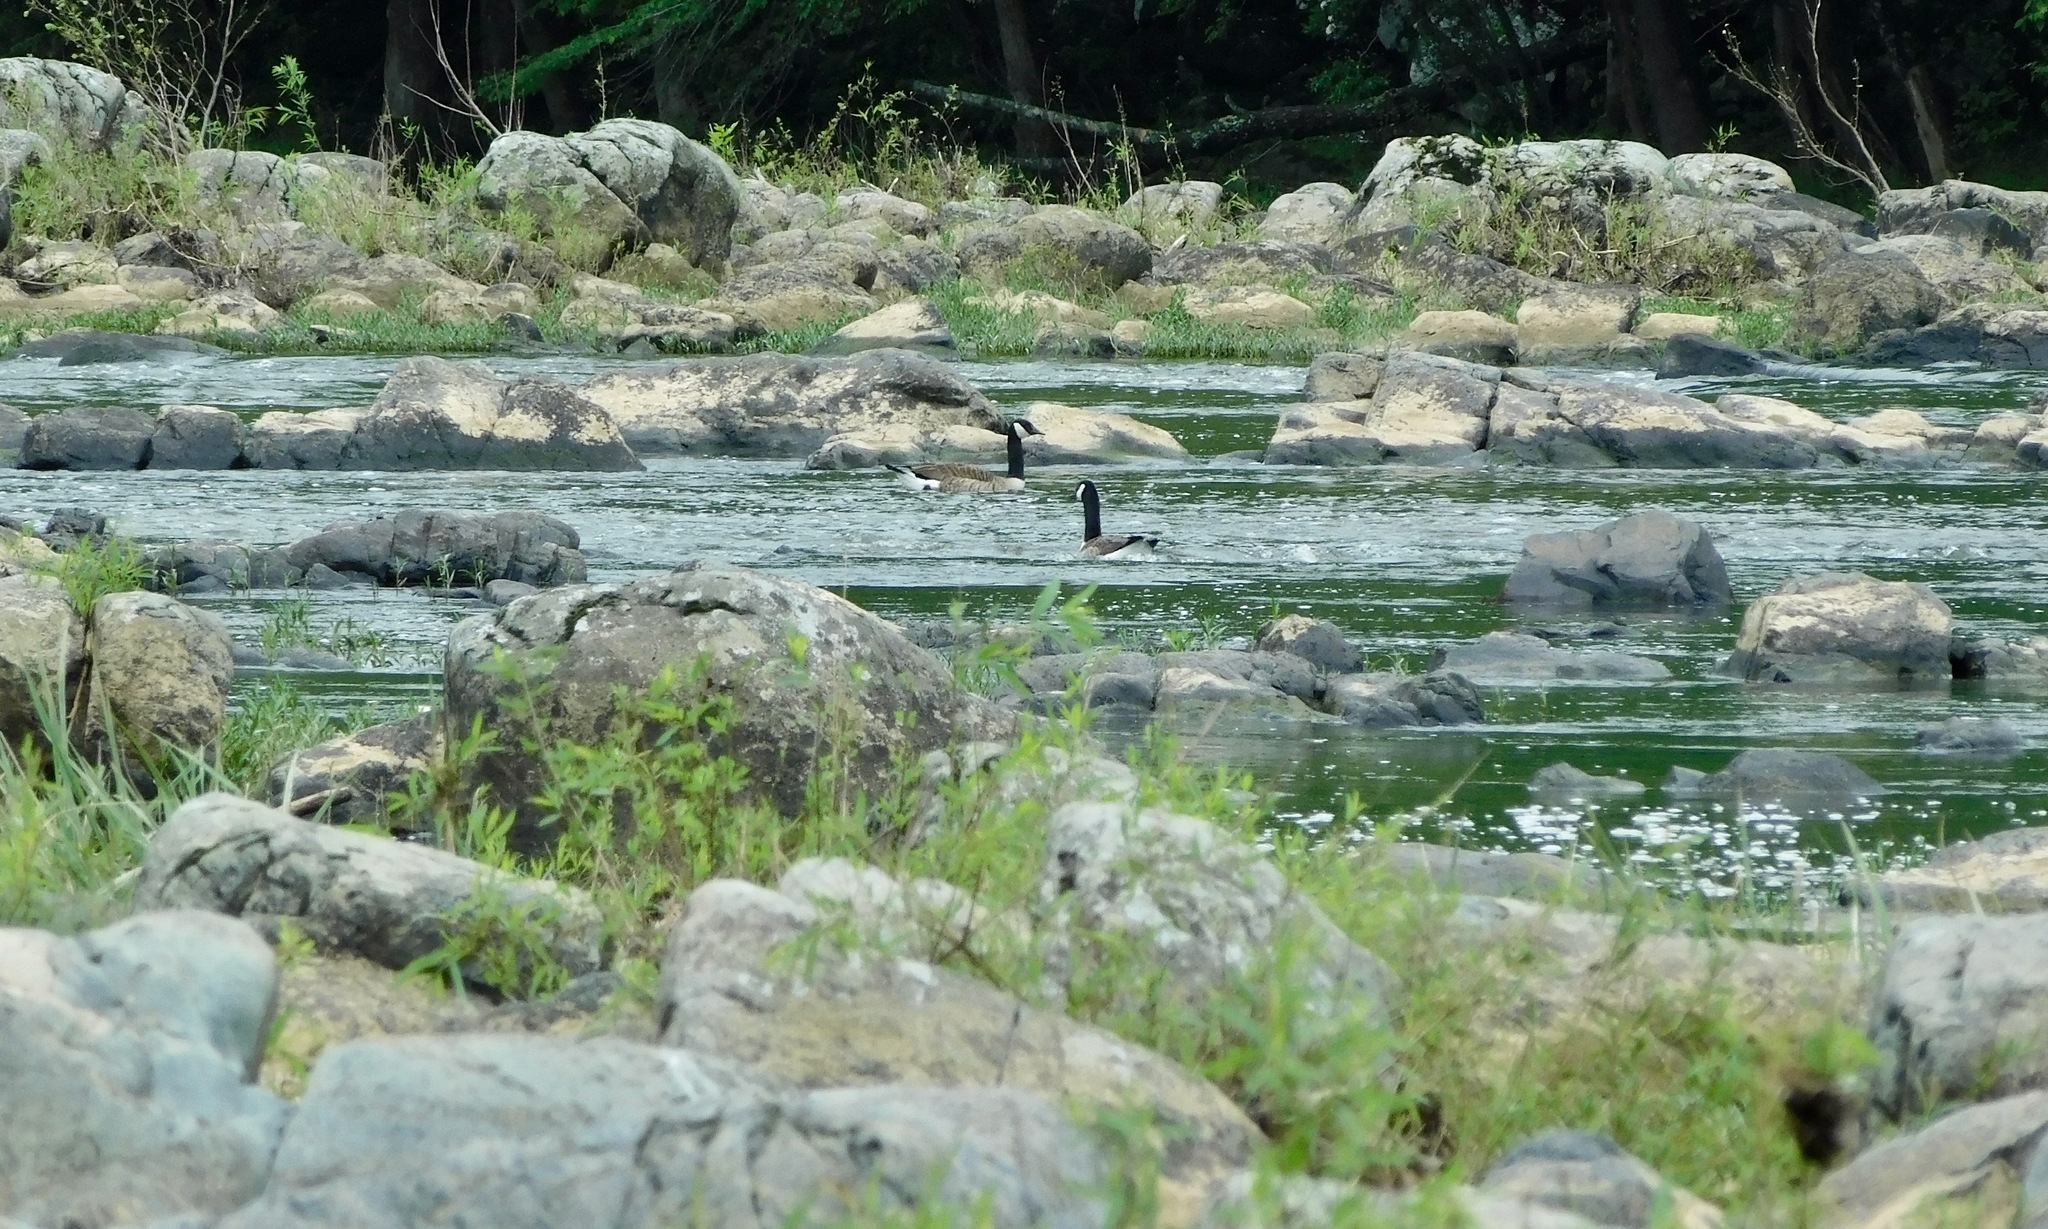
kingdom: Animalia
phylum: Chordata
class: Aves
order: Anseriformes
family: Anatidae
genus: Branta
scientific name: Branta canadensis
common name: Canada goose
